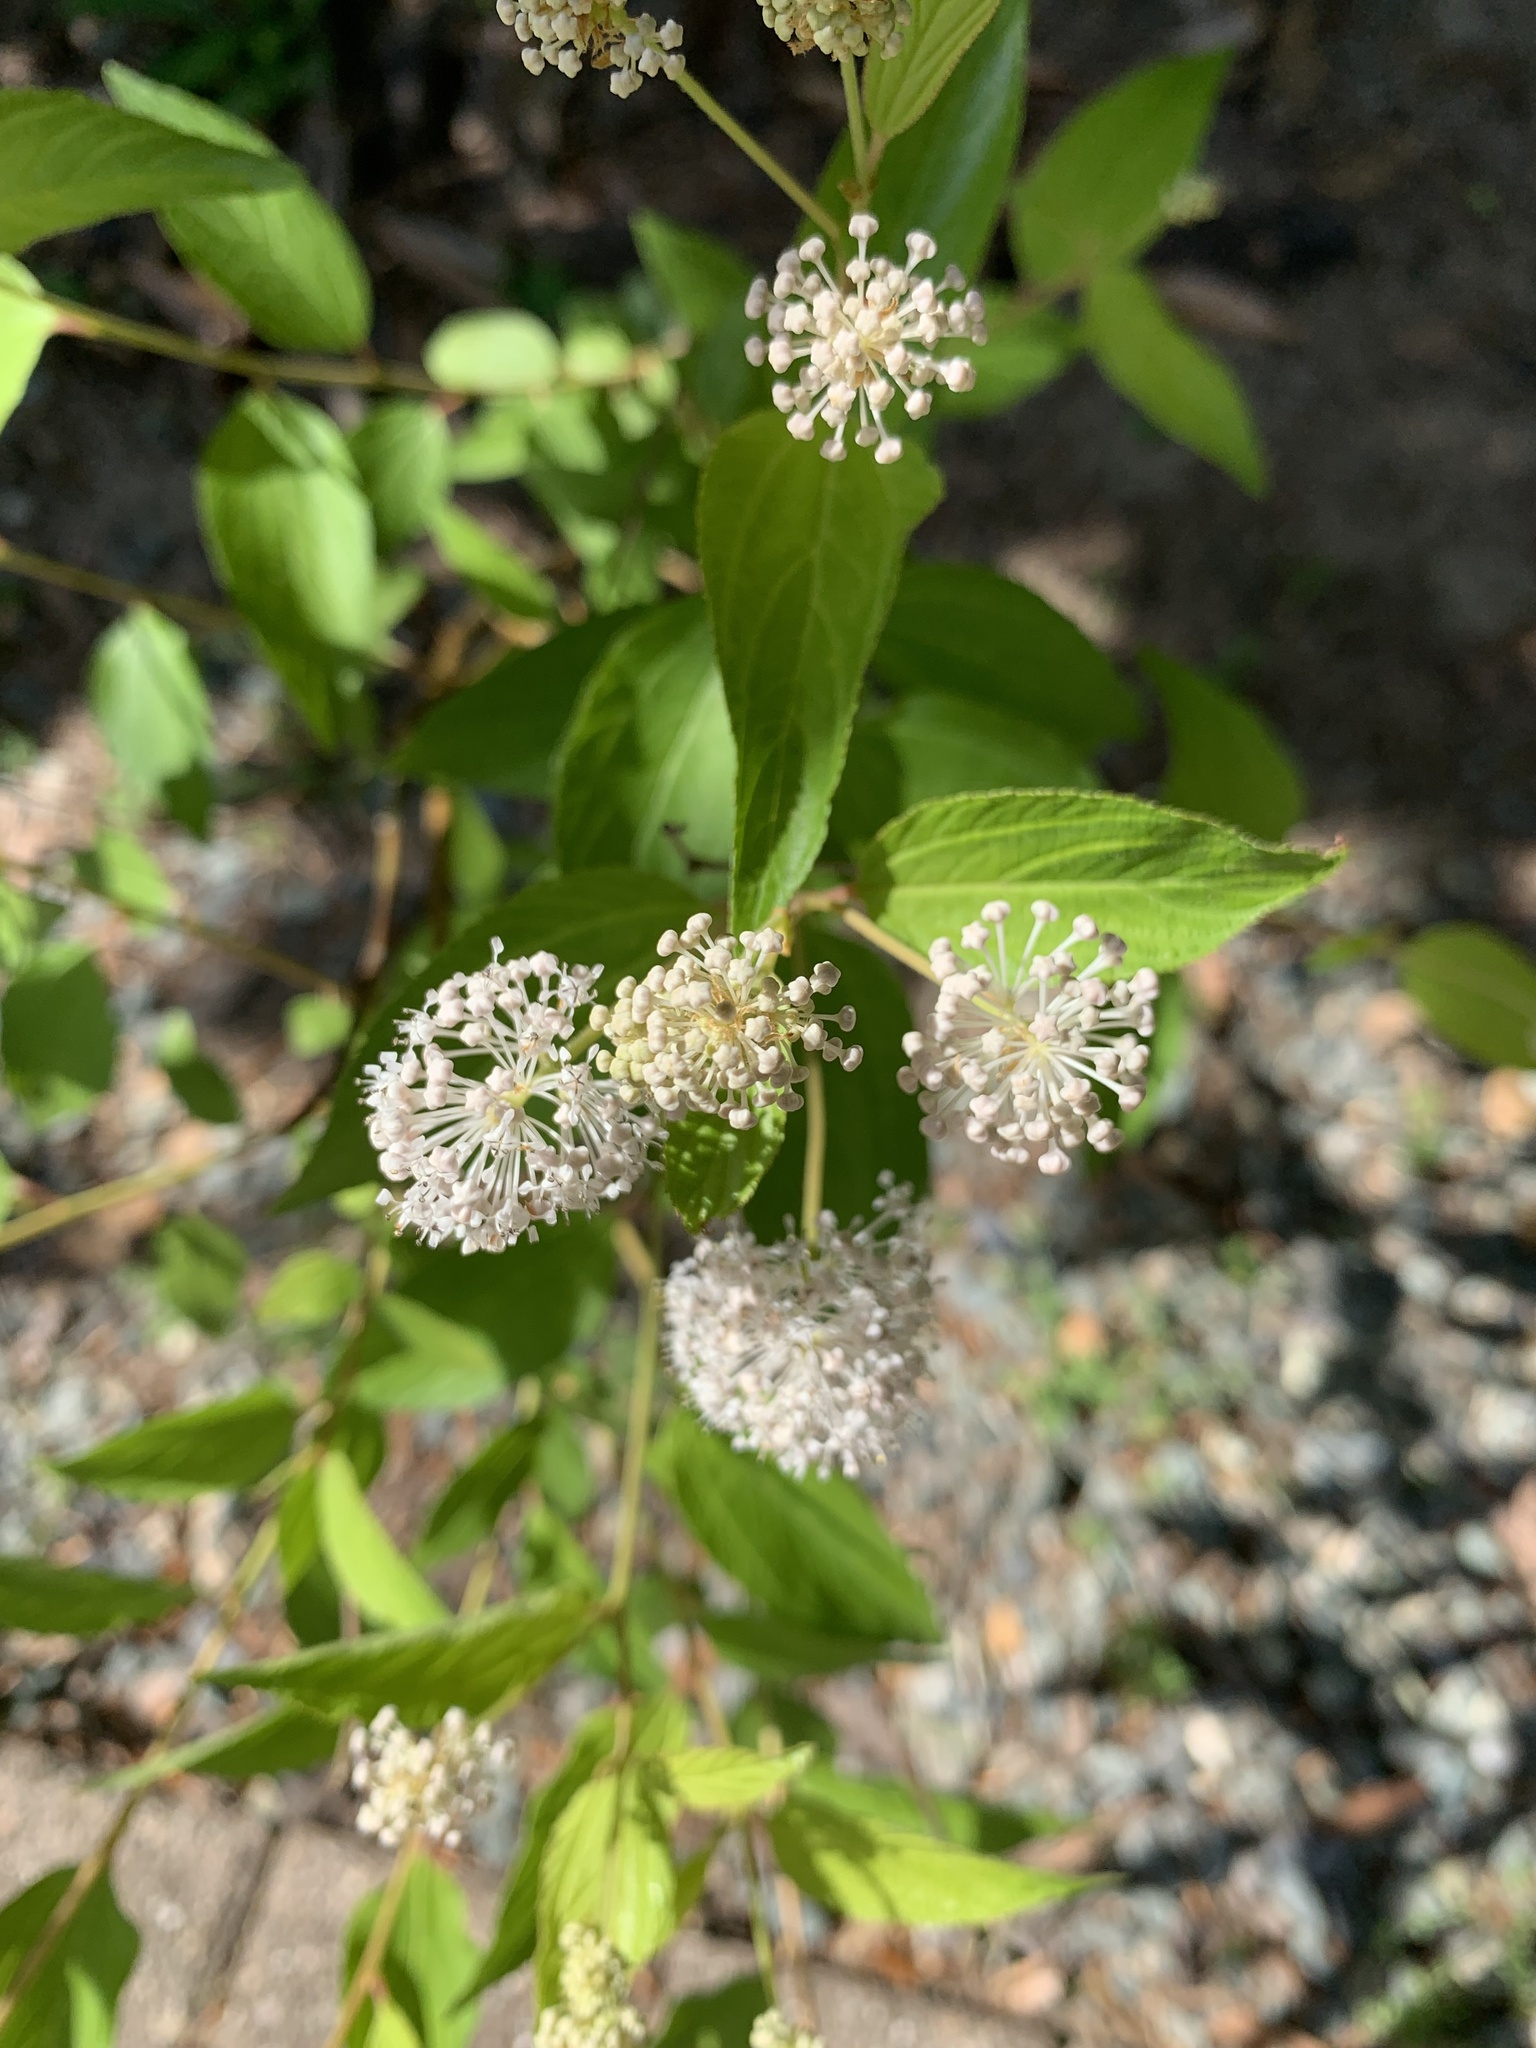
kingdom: Plantae
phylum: Tracheophyta
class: Magnoliopsida
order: Rosales
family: Rhamnaceae
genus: Ceanothus
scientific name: Ceanothus americanus
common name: Redroot
